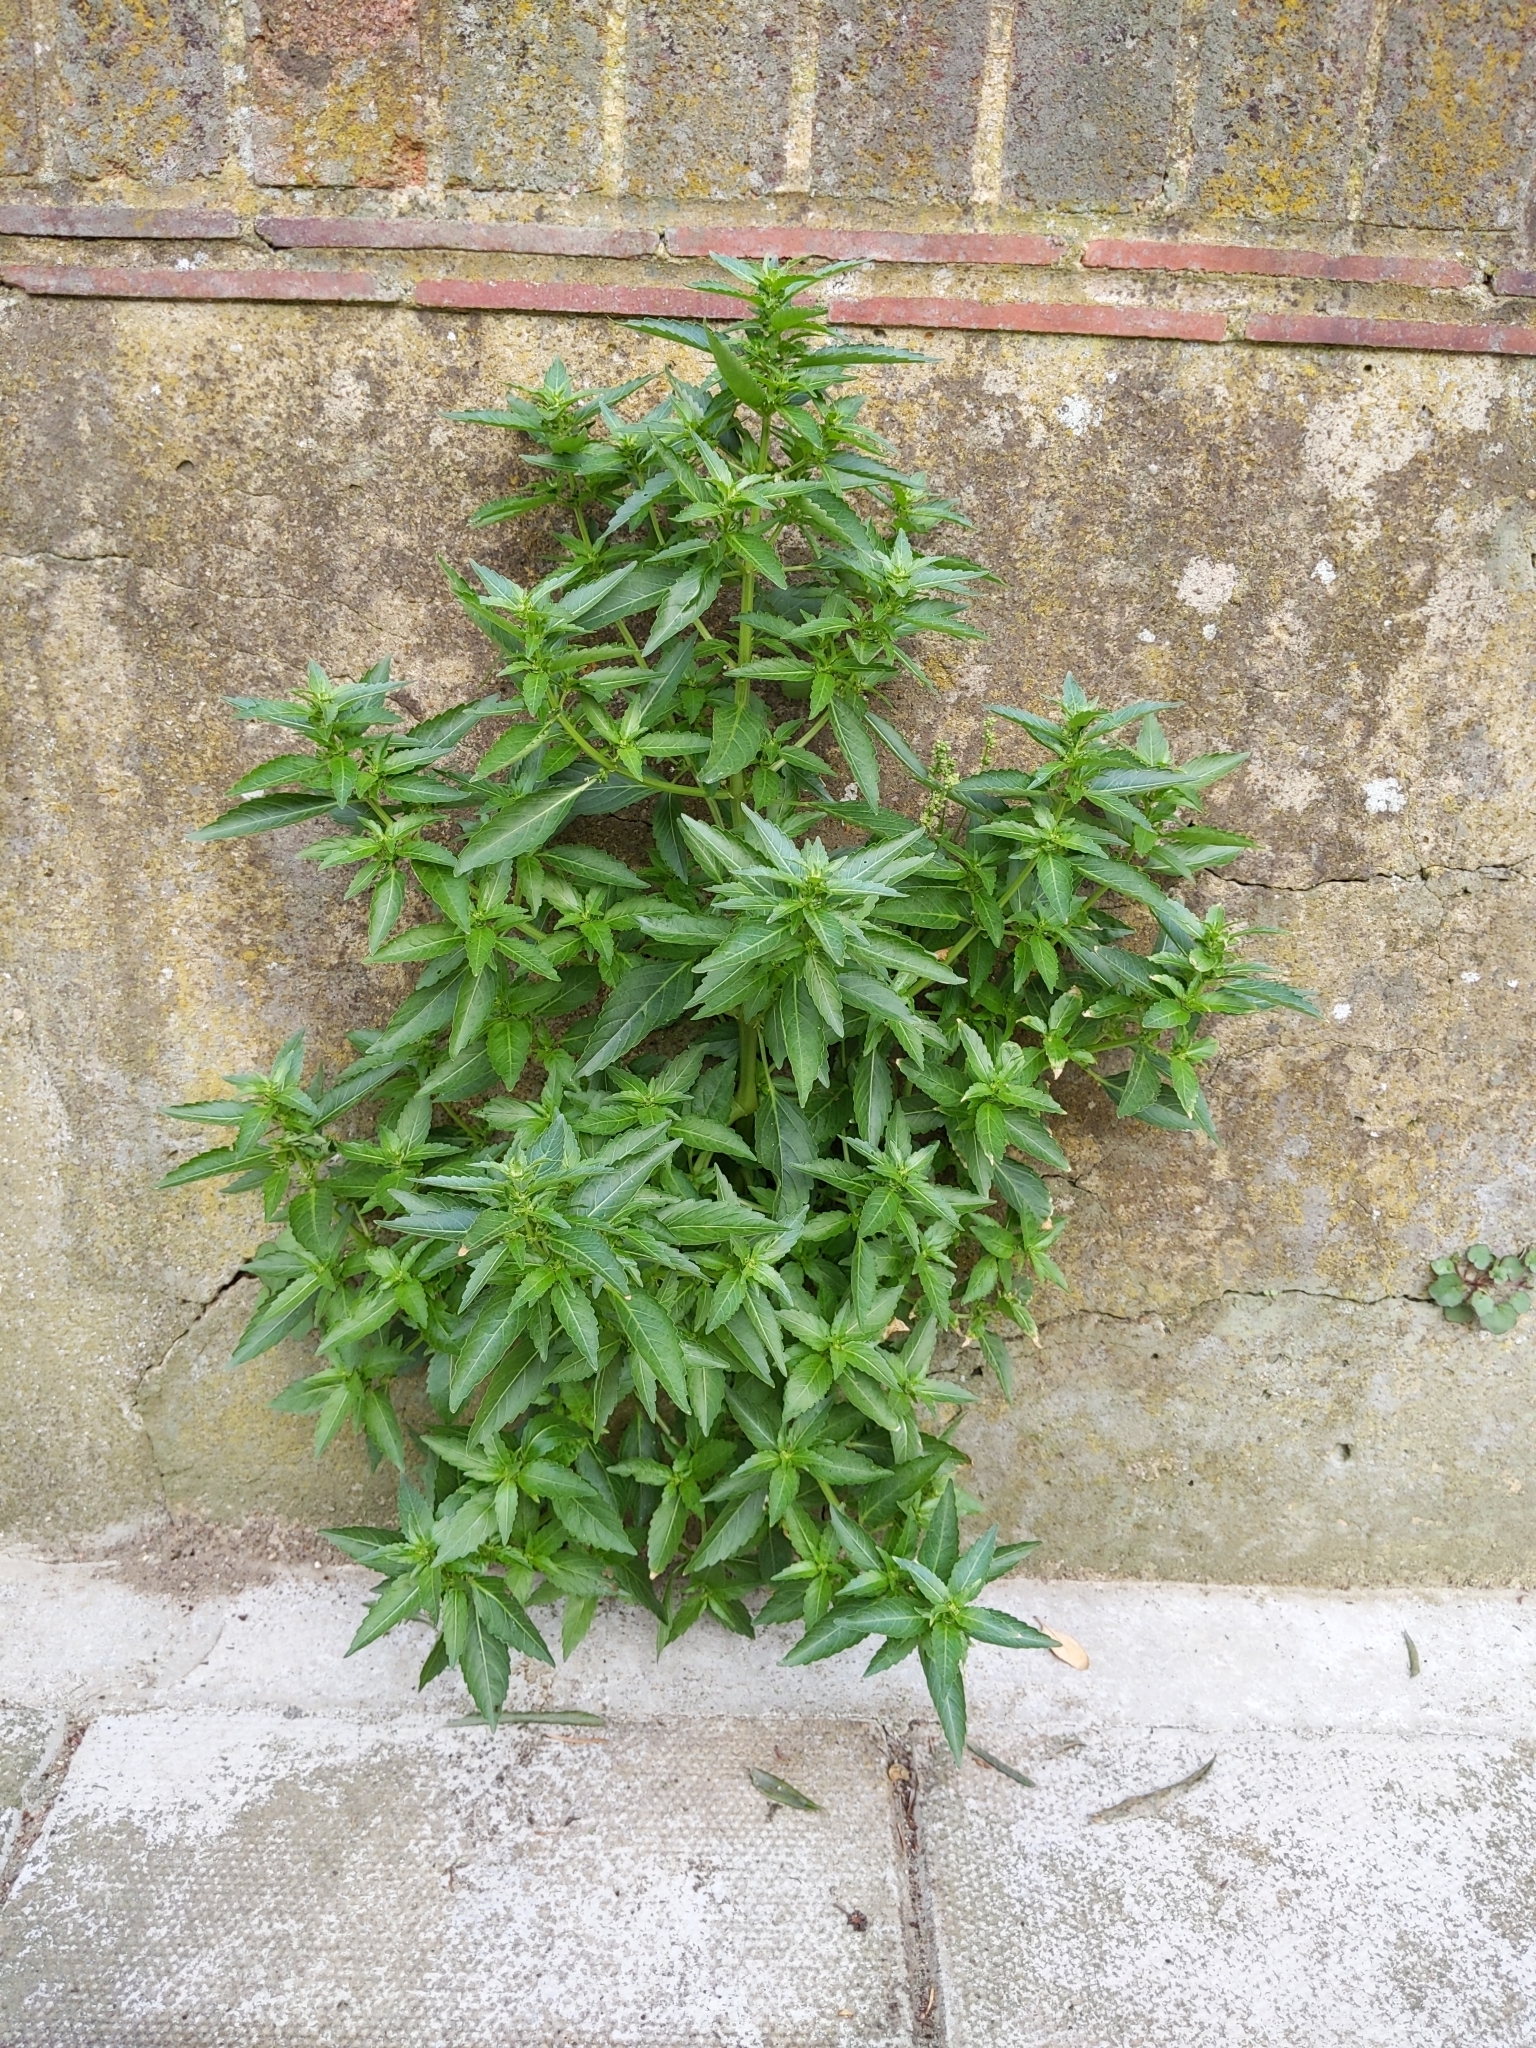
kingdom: Plantae
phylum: Tracheophyta
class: Magnoliopsida
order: Malpighiales
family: Euphorbiaceae
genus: Mercurialis
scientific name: Mercurialis annua
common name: Annual mercury
